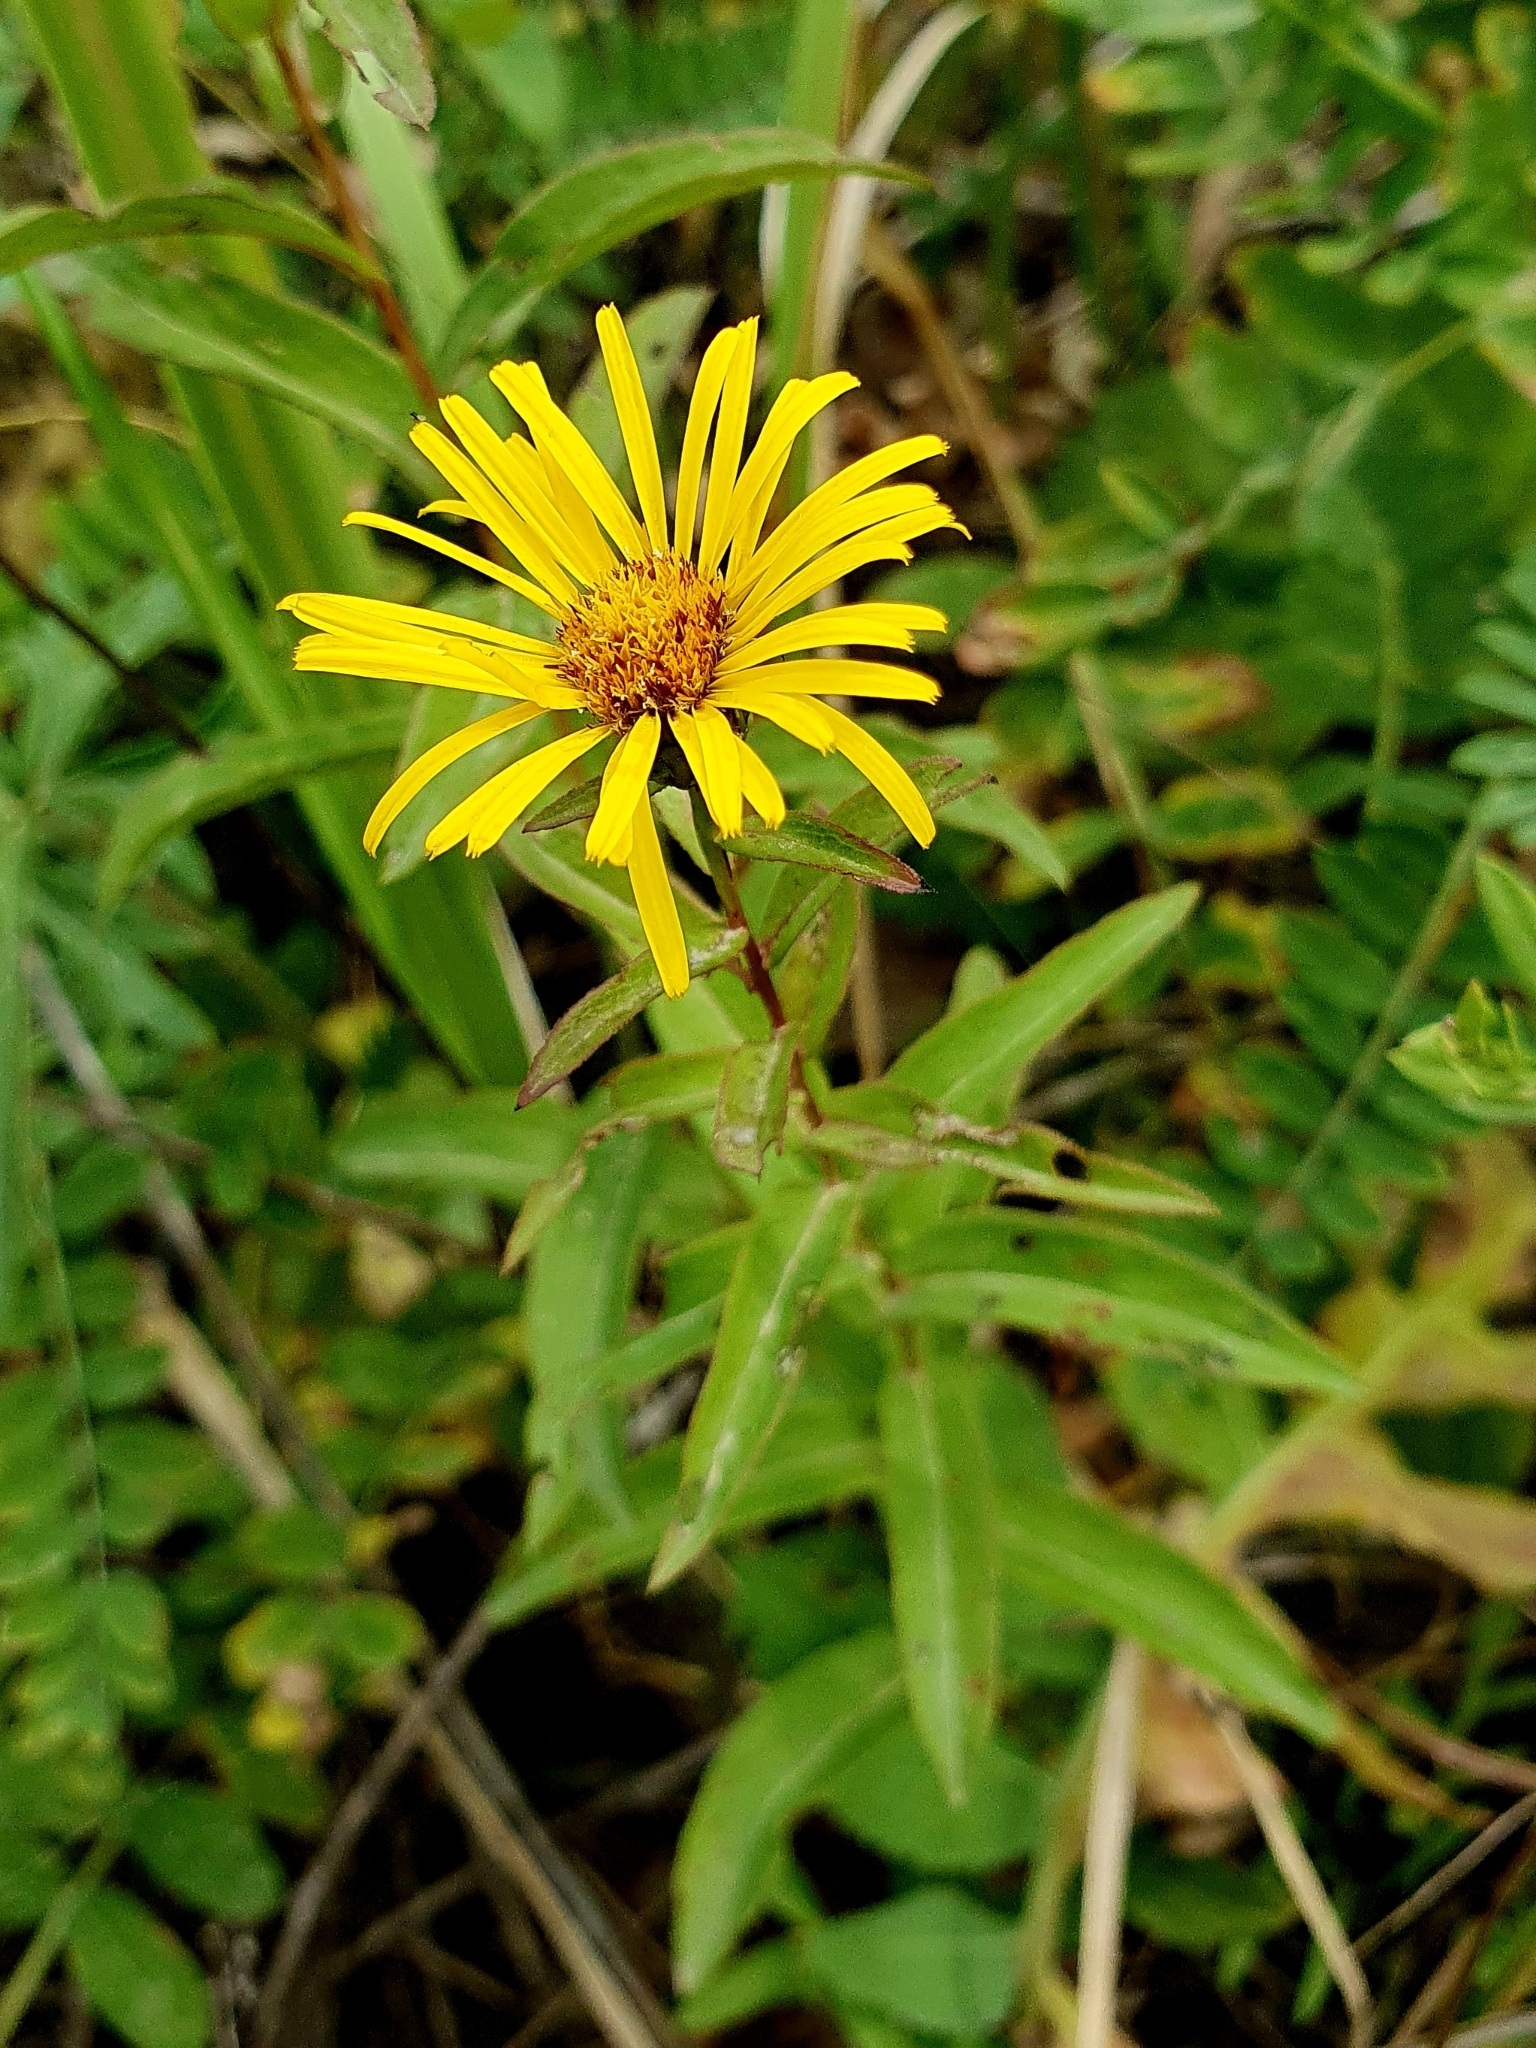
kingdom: Plantae
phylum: Tracheophyta
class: Magnoliopsida
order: Asterales
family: Asteraceae
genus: Pentanema
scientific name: Pentanema salicinum
